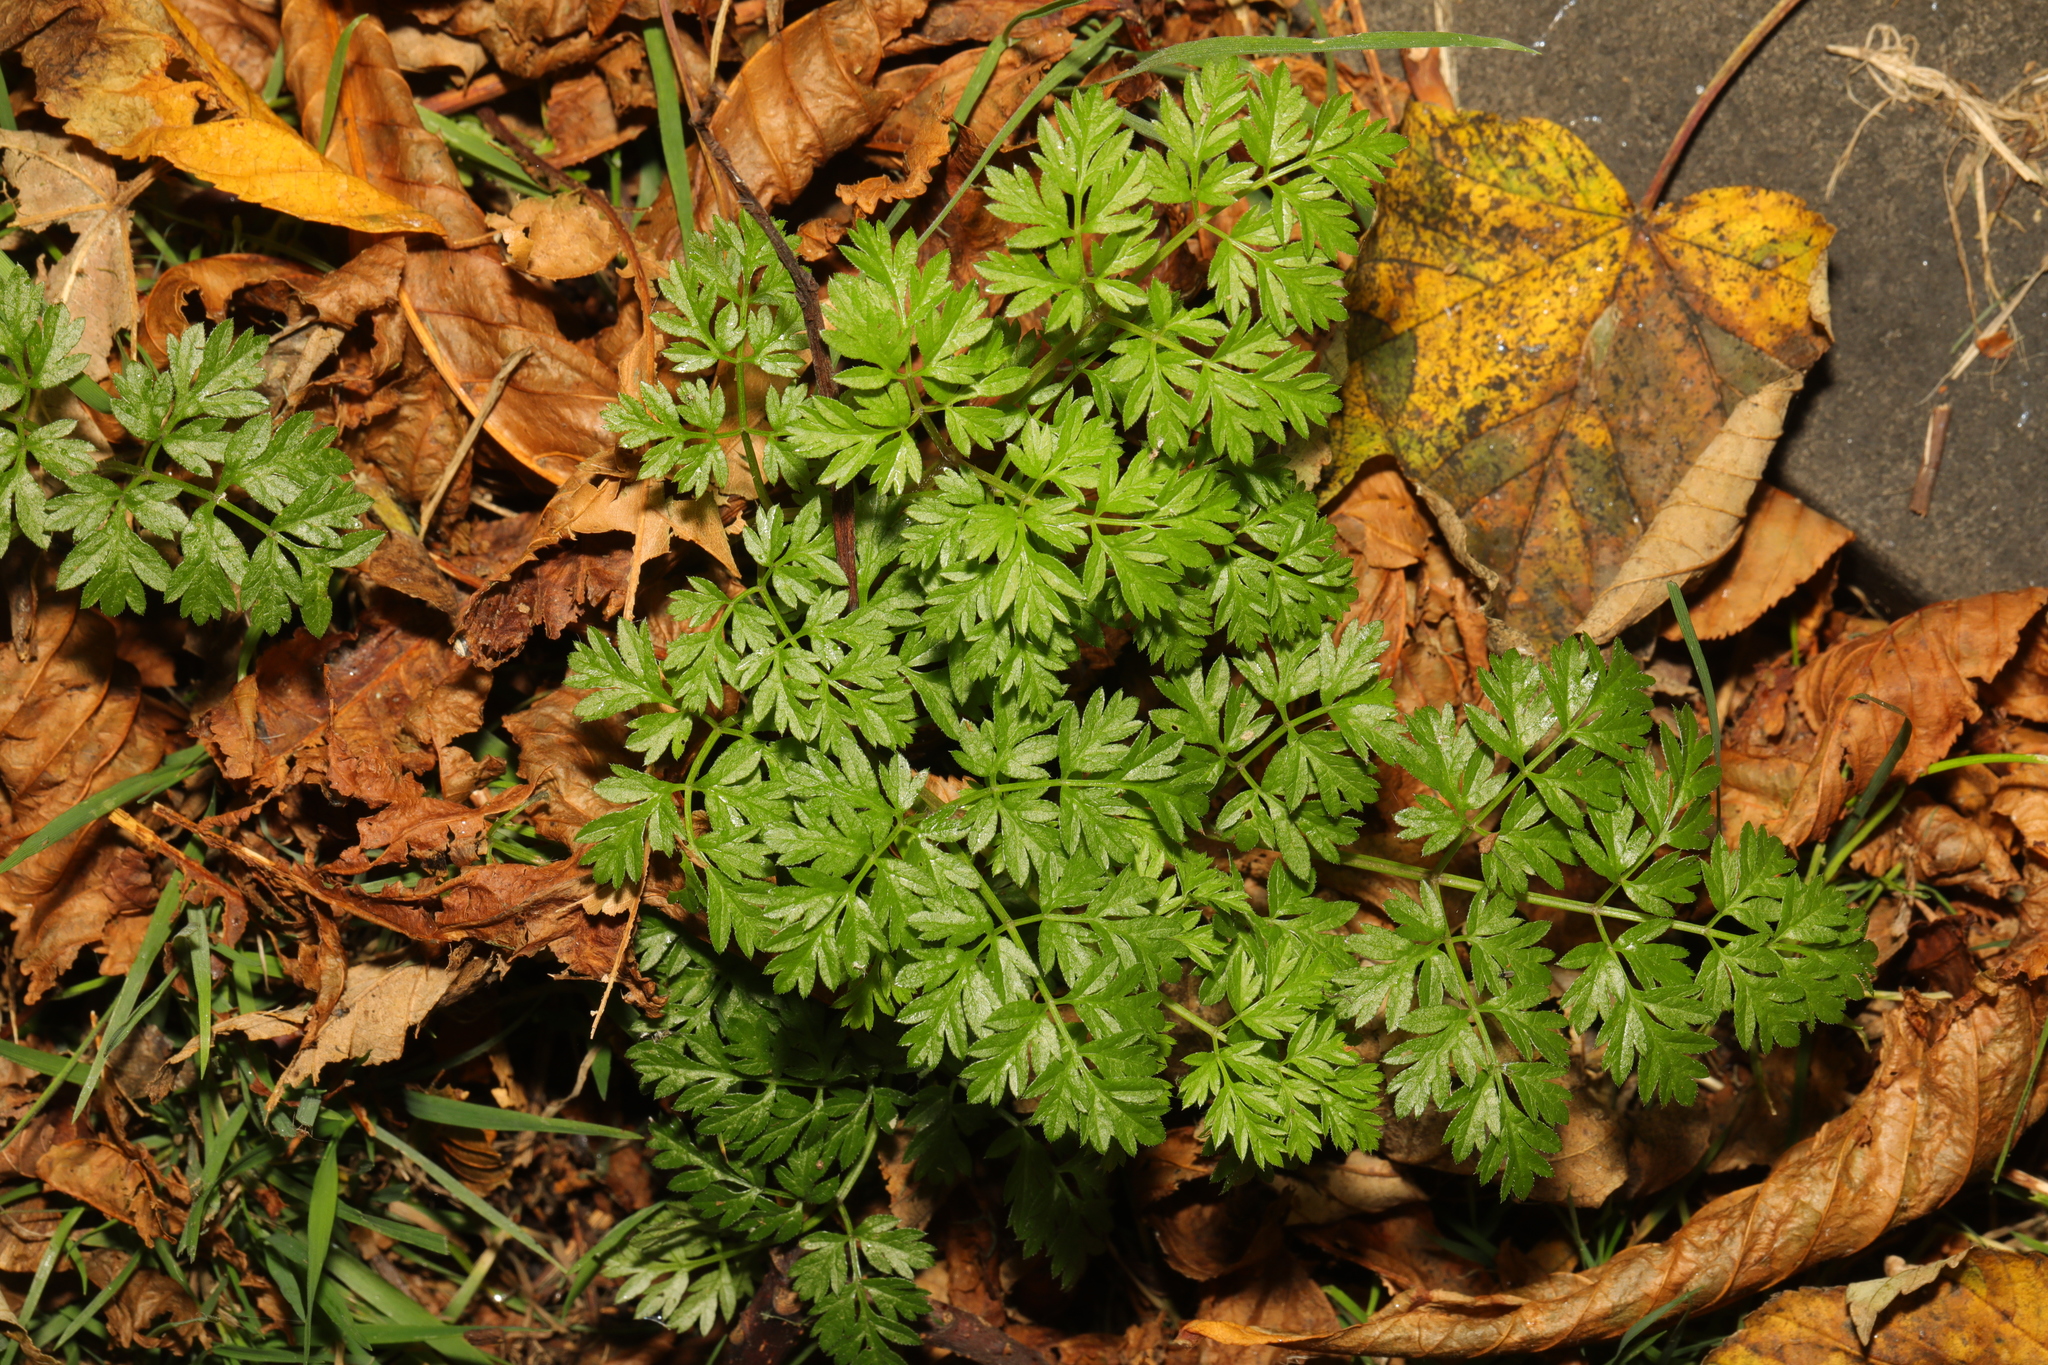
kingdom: Plantae
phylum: Tracheophyta
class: Magnoliopsida
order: Apiales
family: Apiaceae
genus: Anthriscus
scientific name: Anthriscus sylvestris
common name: Cow parsley
